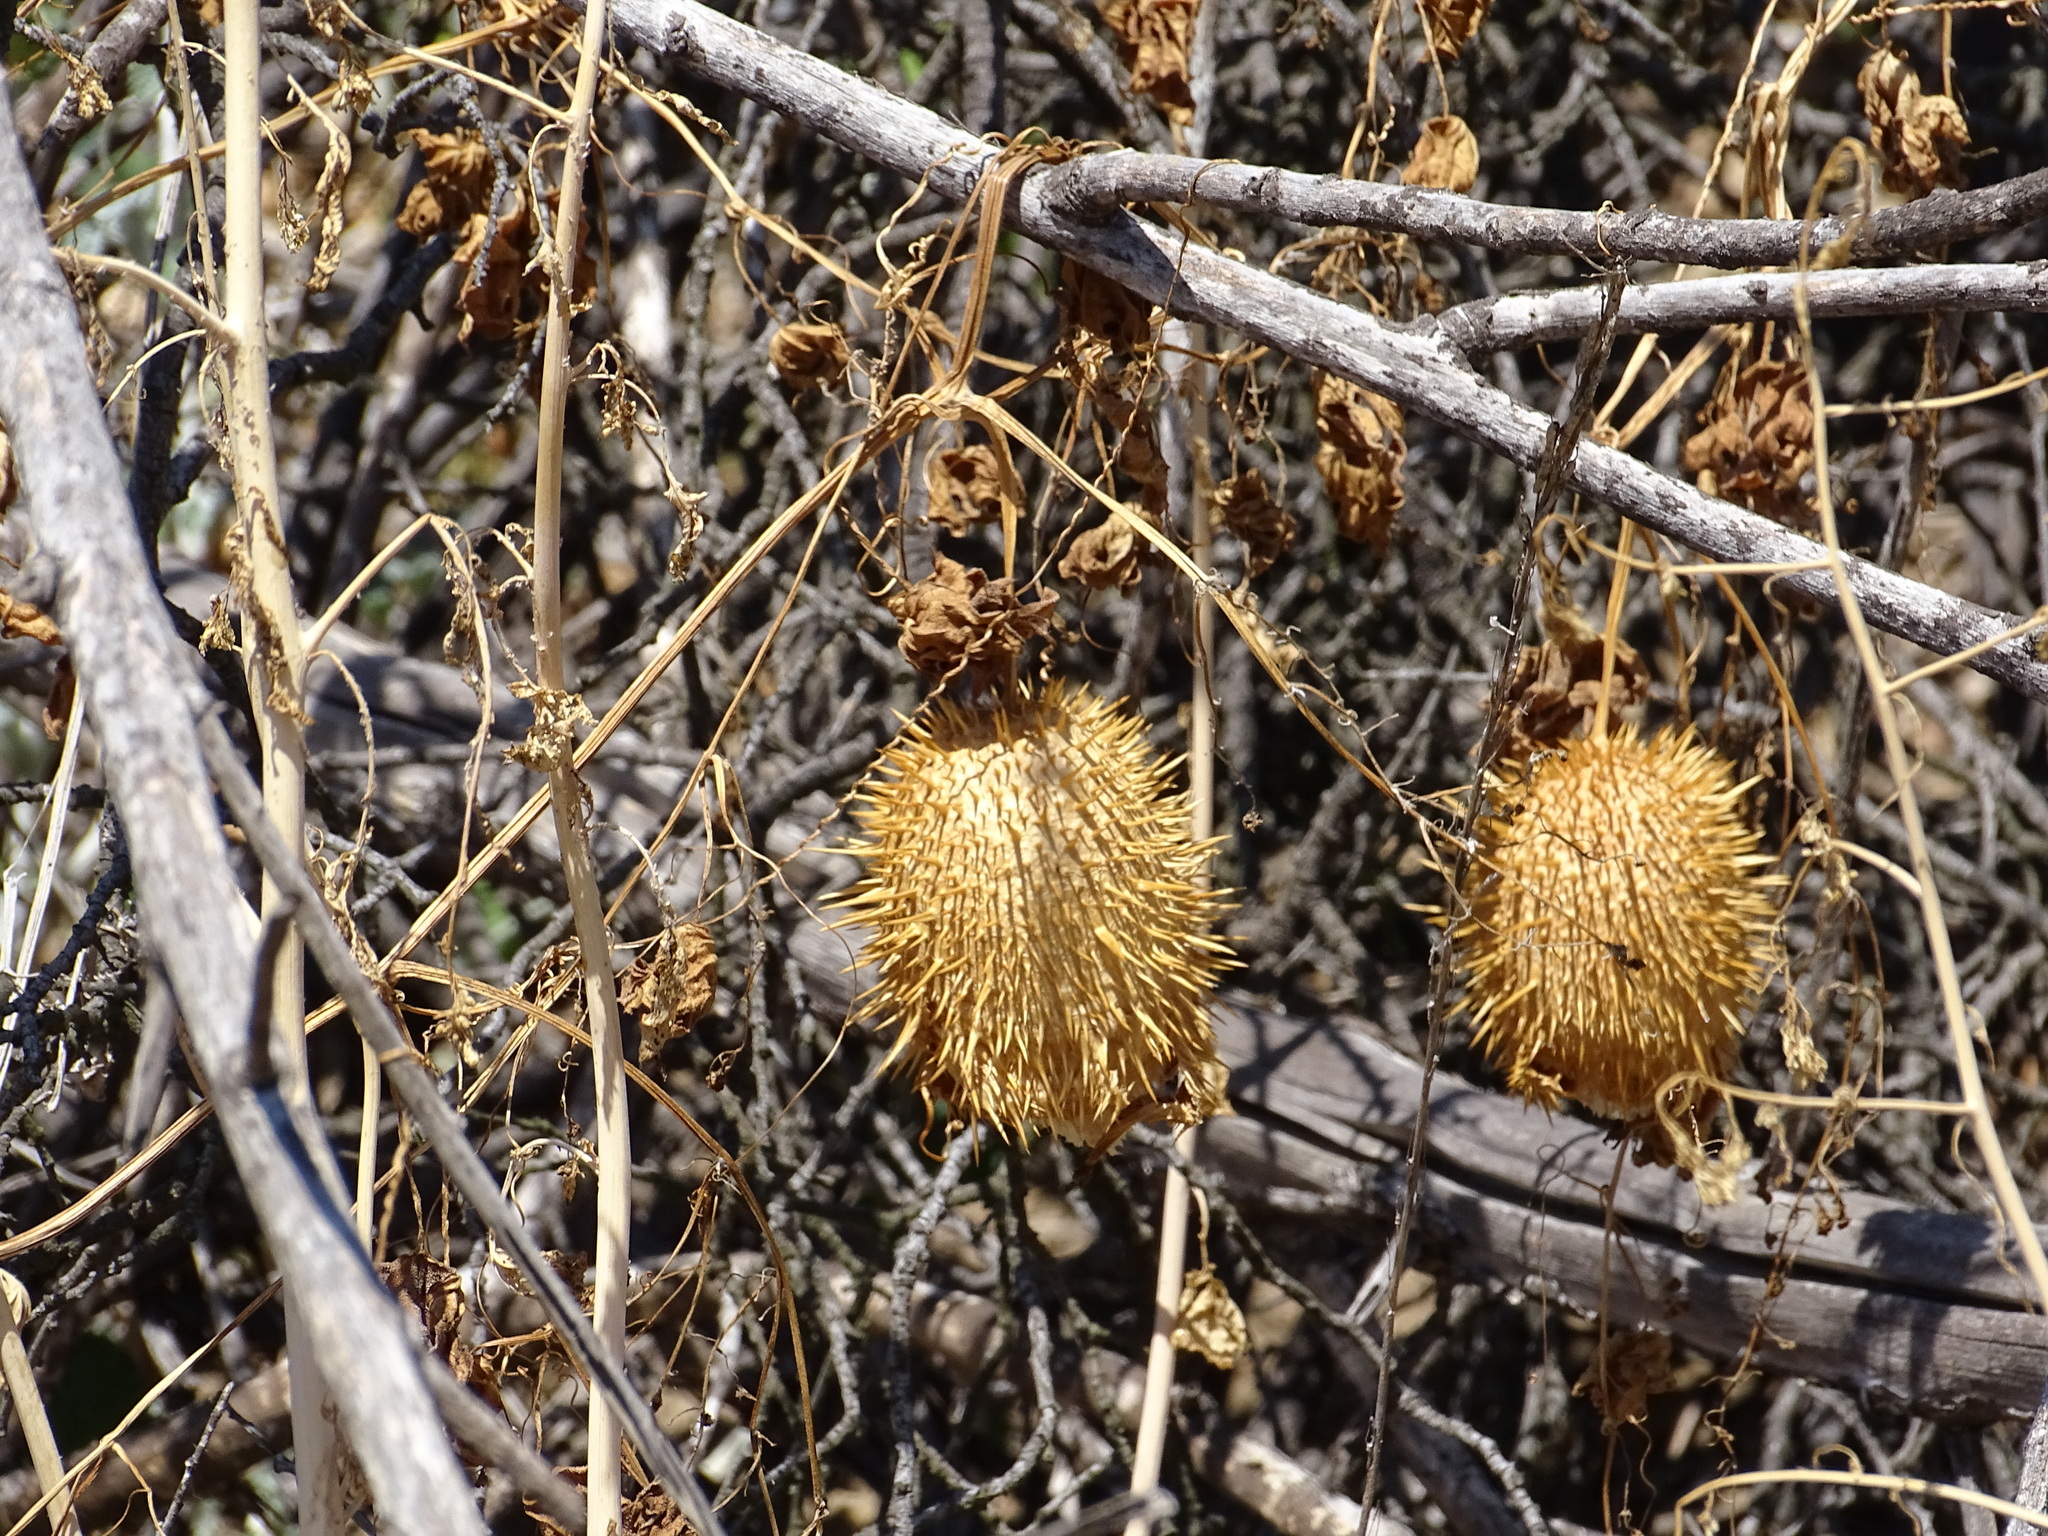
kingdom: Plantae
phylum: Tracheophyta
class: Magnoliopsida
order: Cucurbitales
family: Cucurbitaceae
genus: Marah
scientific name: Marah macrocarpa
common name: Cucamonga manroot
